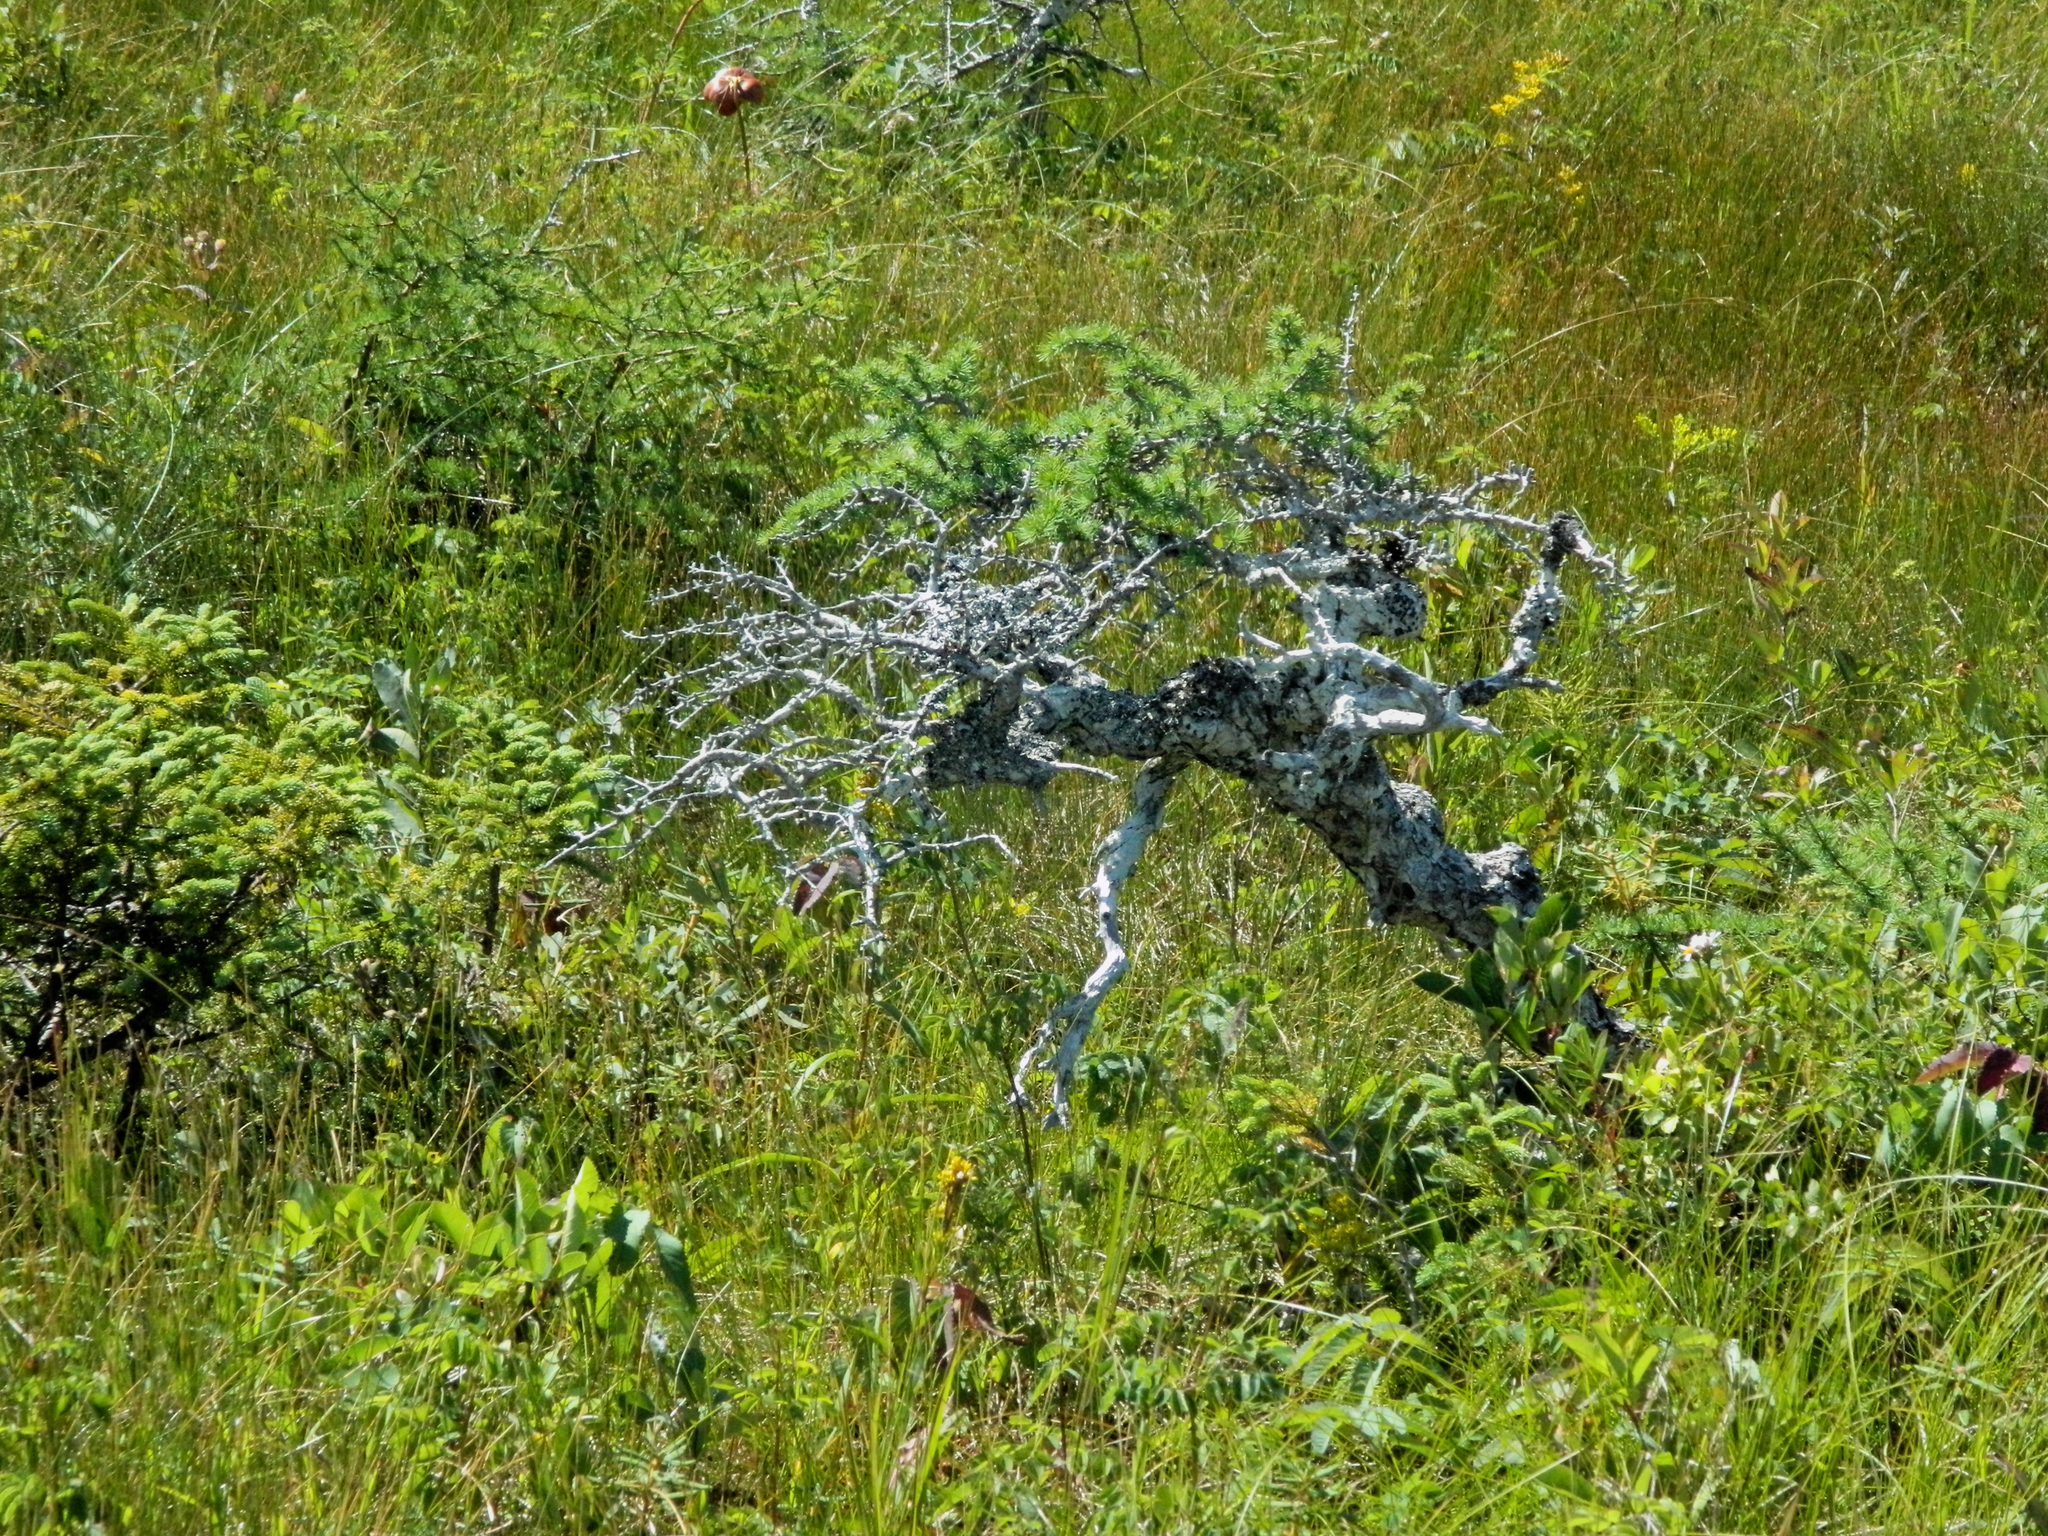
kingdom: Plantae
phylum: Tracheophyta
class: Pinopsida
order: Pinales
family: Pinaceae
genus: Larix
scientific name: Larix laricina
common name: American larch
